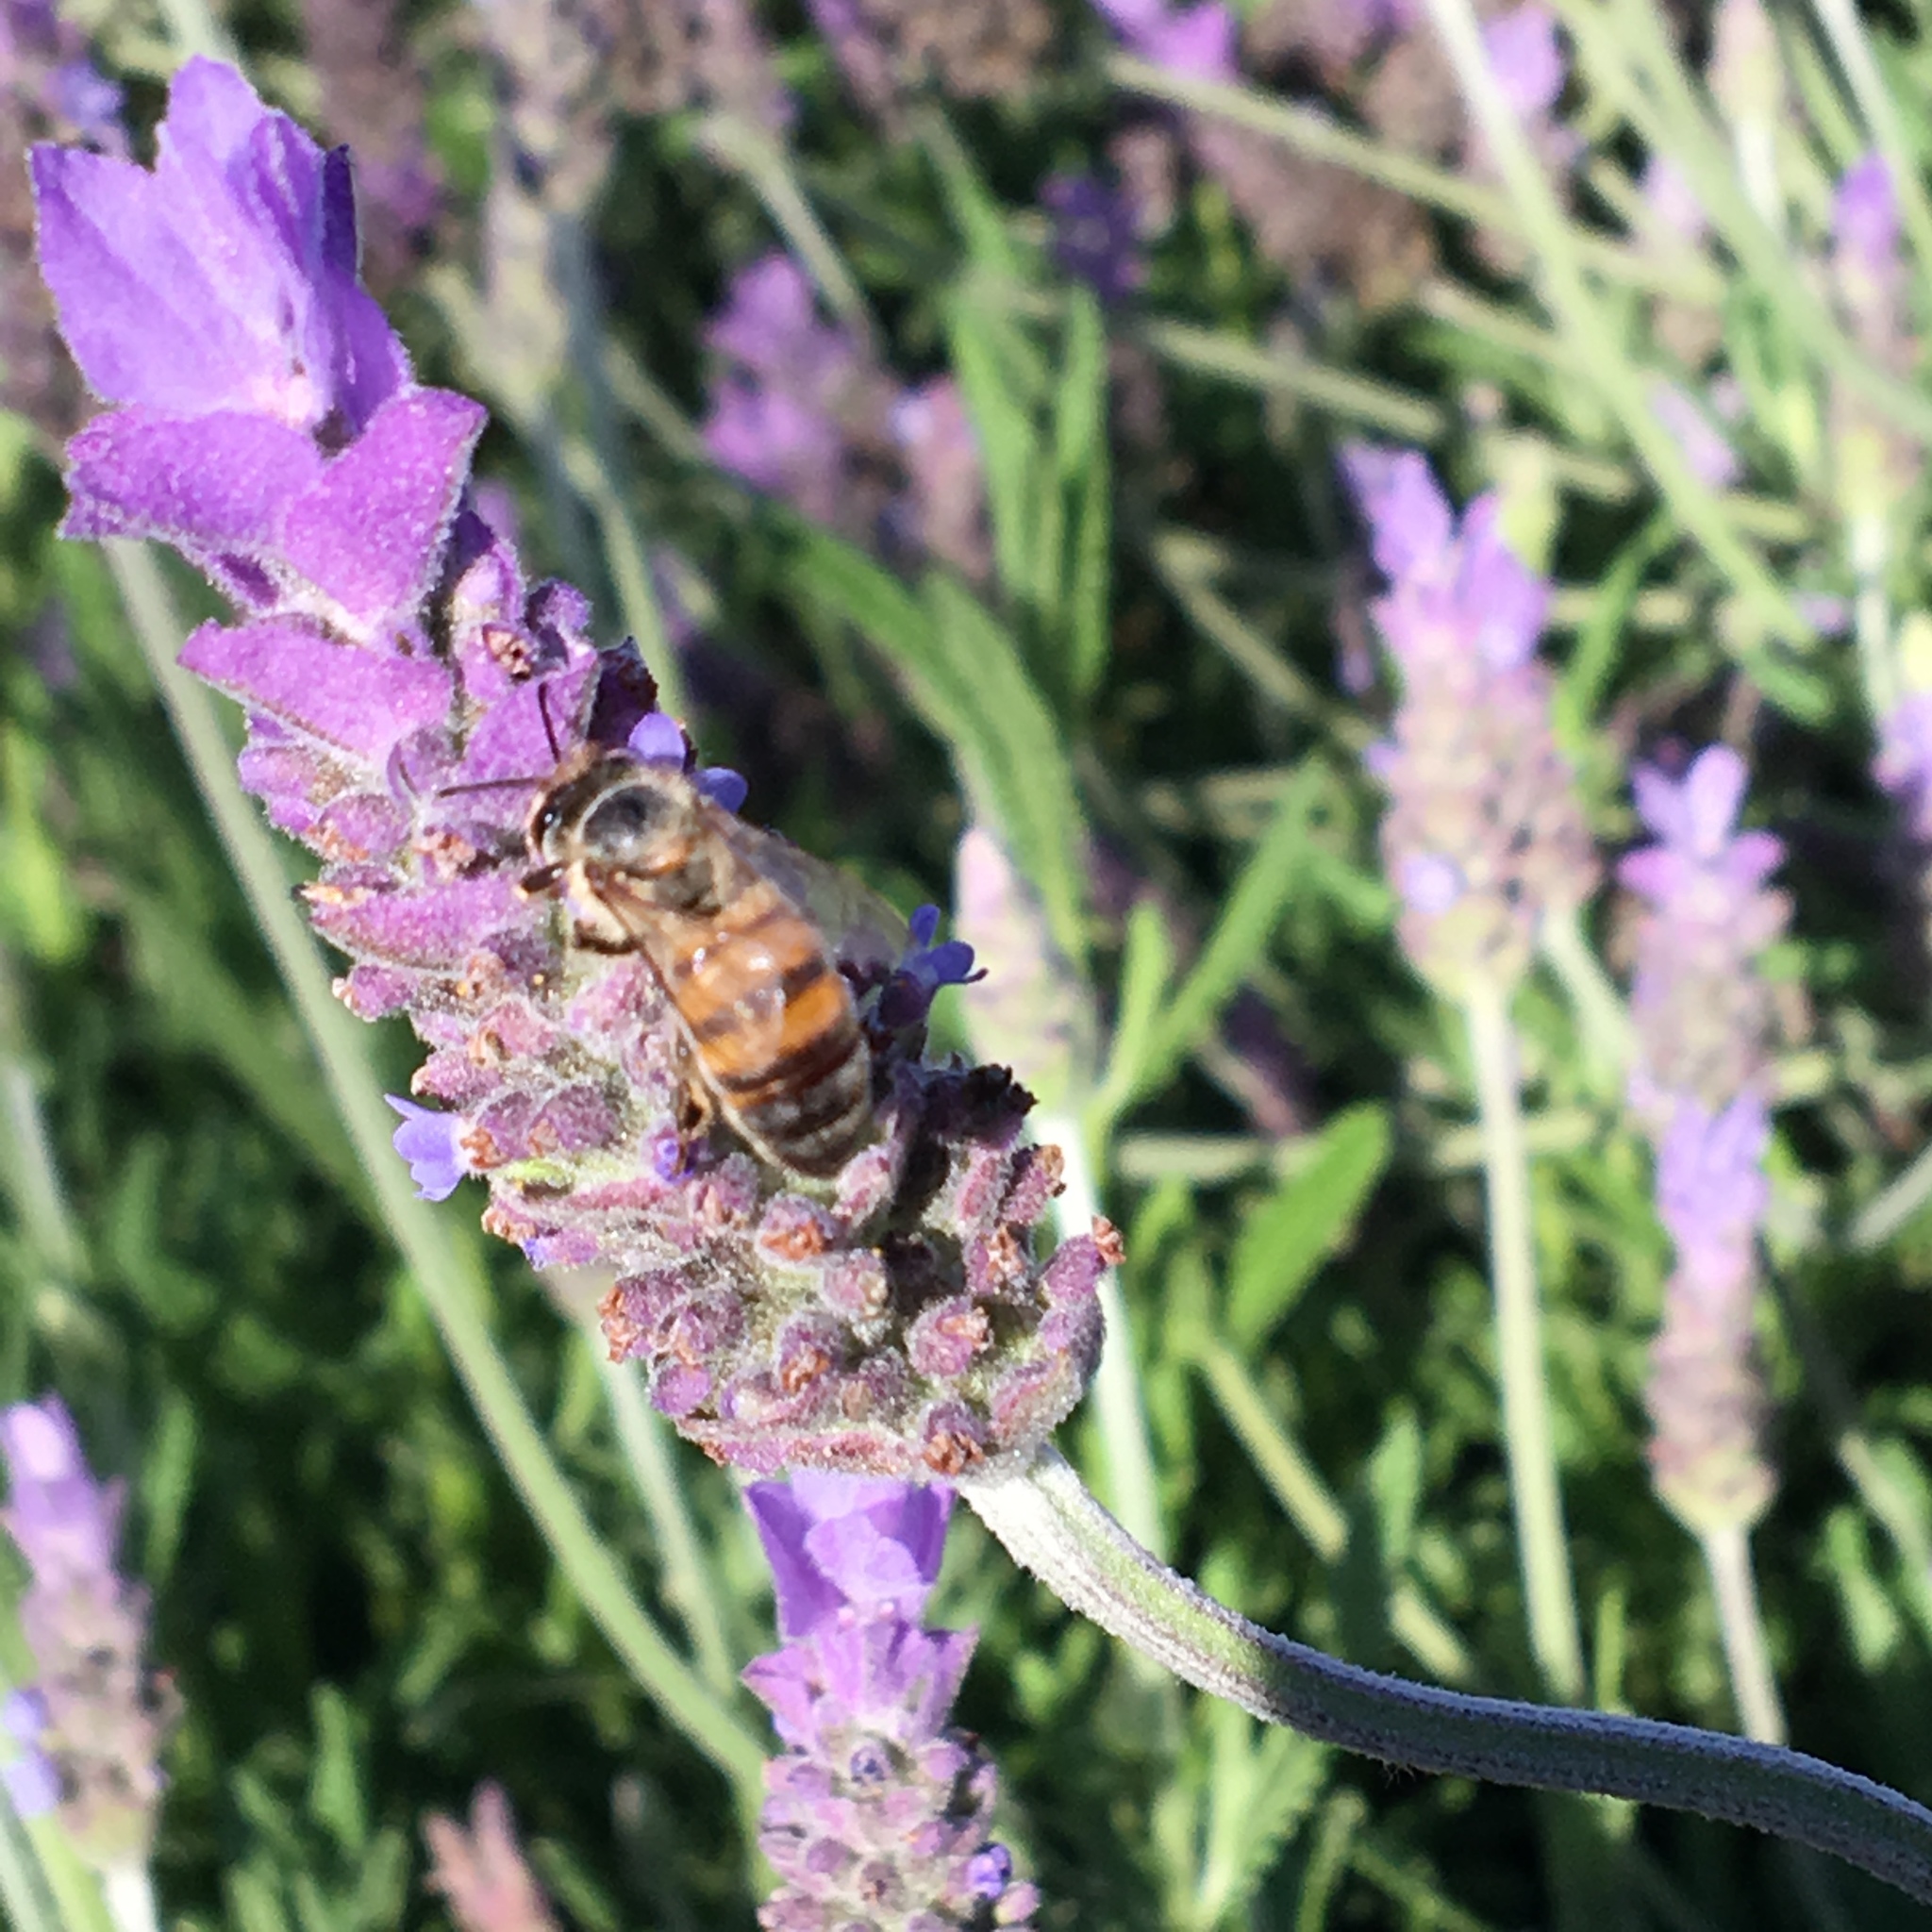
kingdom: Animalia
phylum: Arthropoda
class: Insecta
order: Hymenoptera
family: Apidae
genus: Apis
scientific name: Apis mellifera
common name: Honey bee
